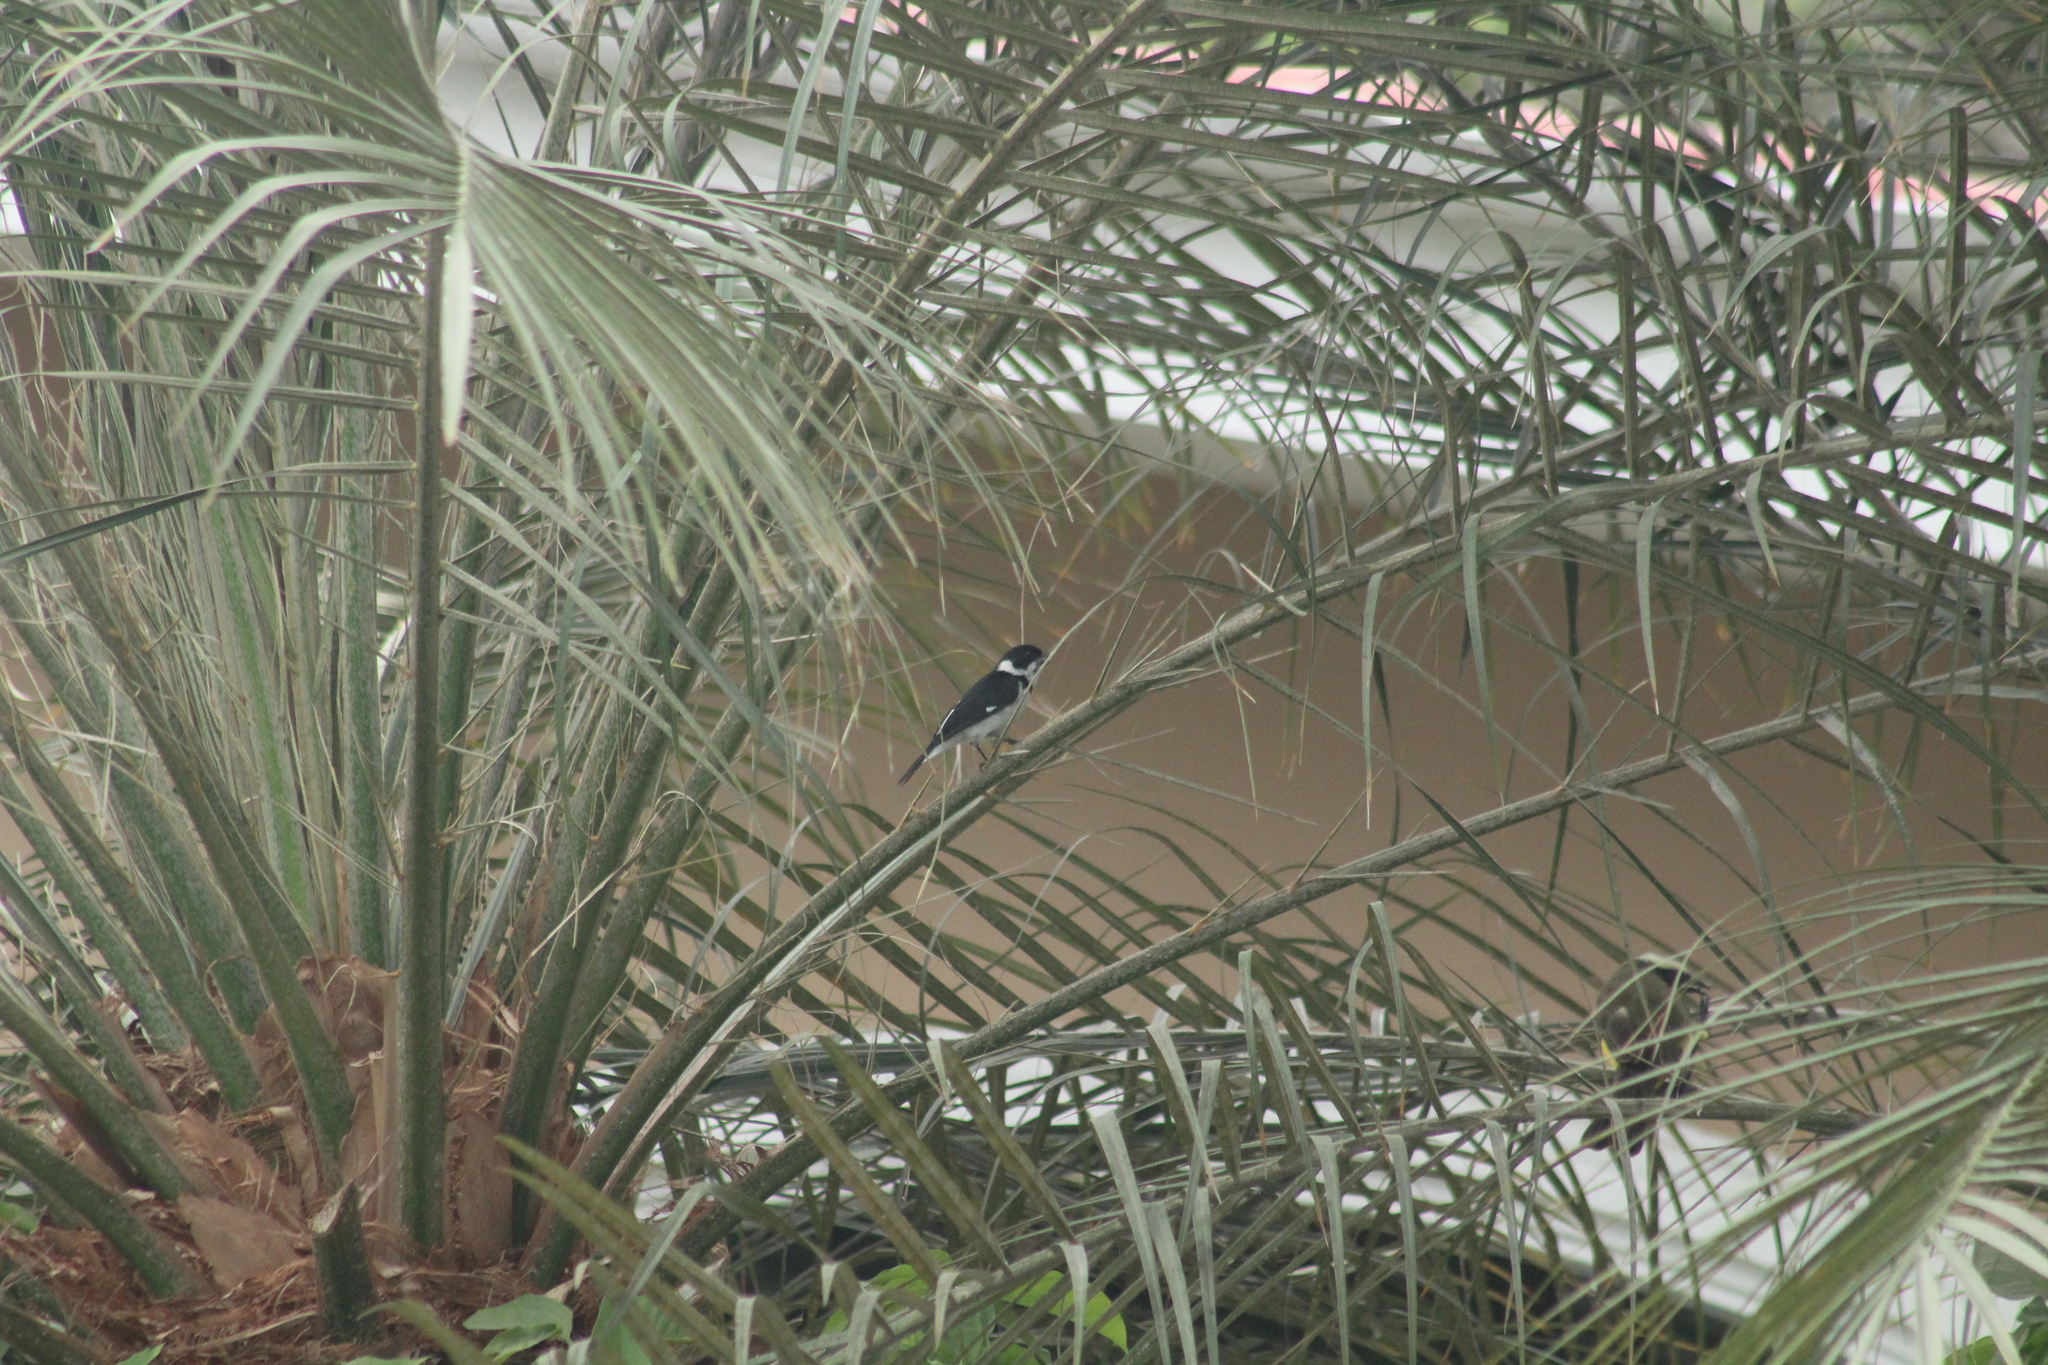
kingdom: Animalia
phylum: Chordata
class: Aves
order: Passeriformes
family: Thraupidae
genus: Sporophila
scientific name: Sporophila corvina
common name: Variable seedeater
